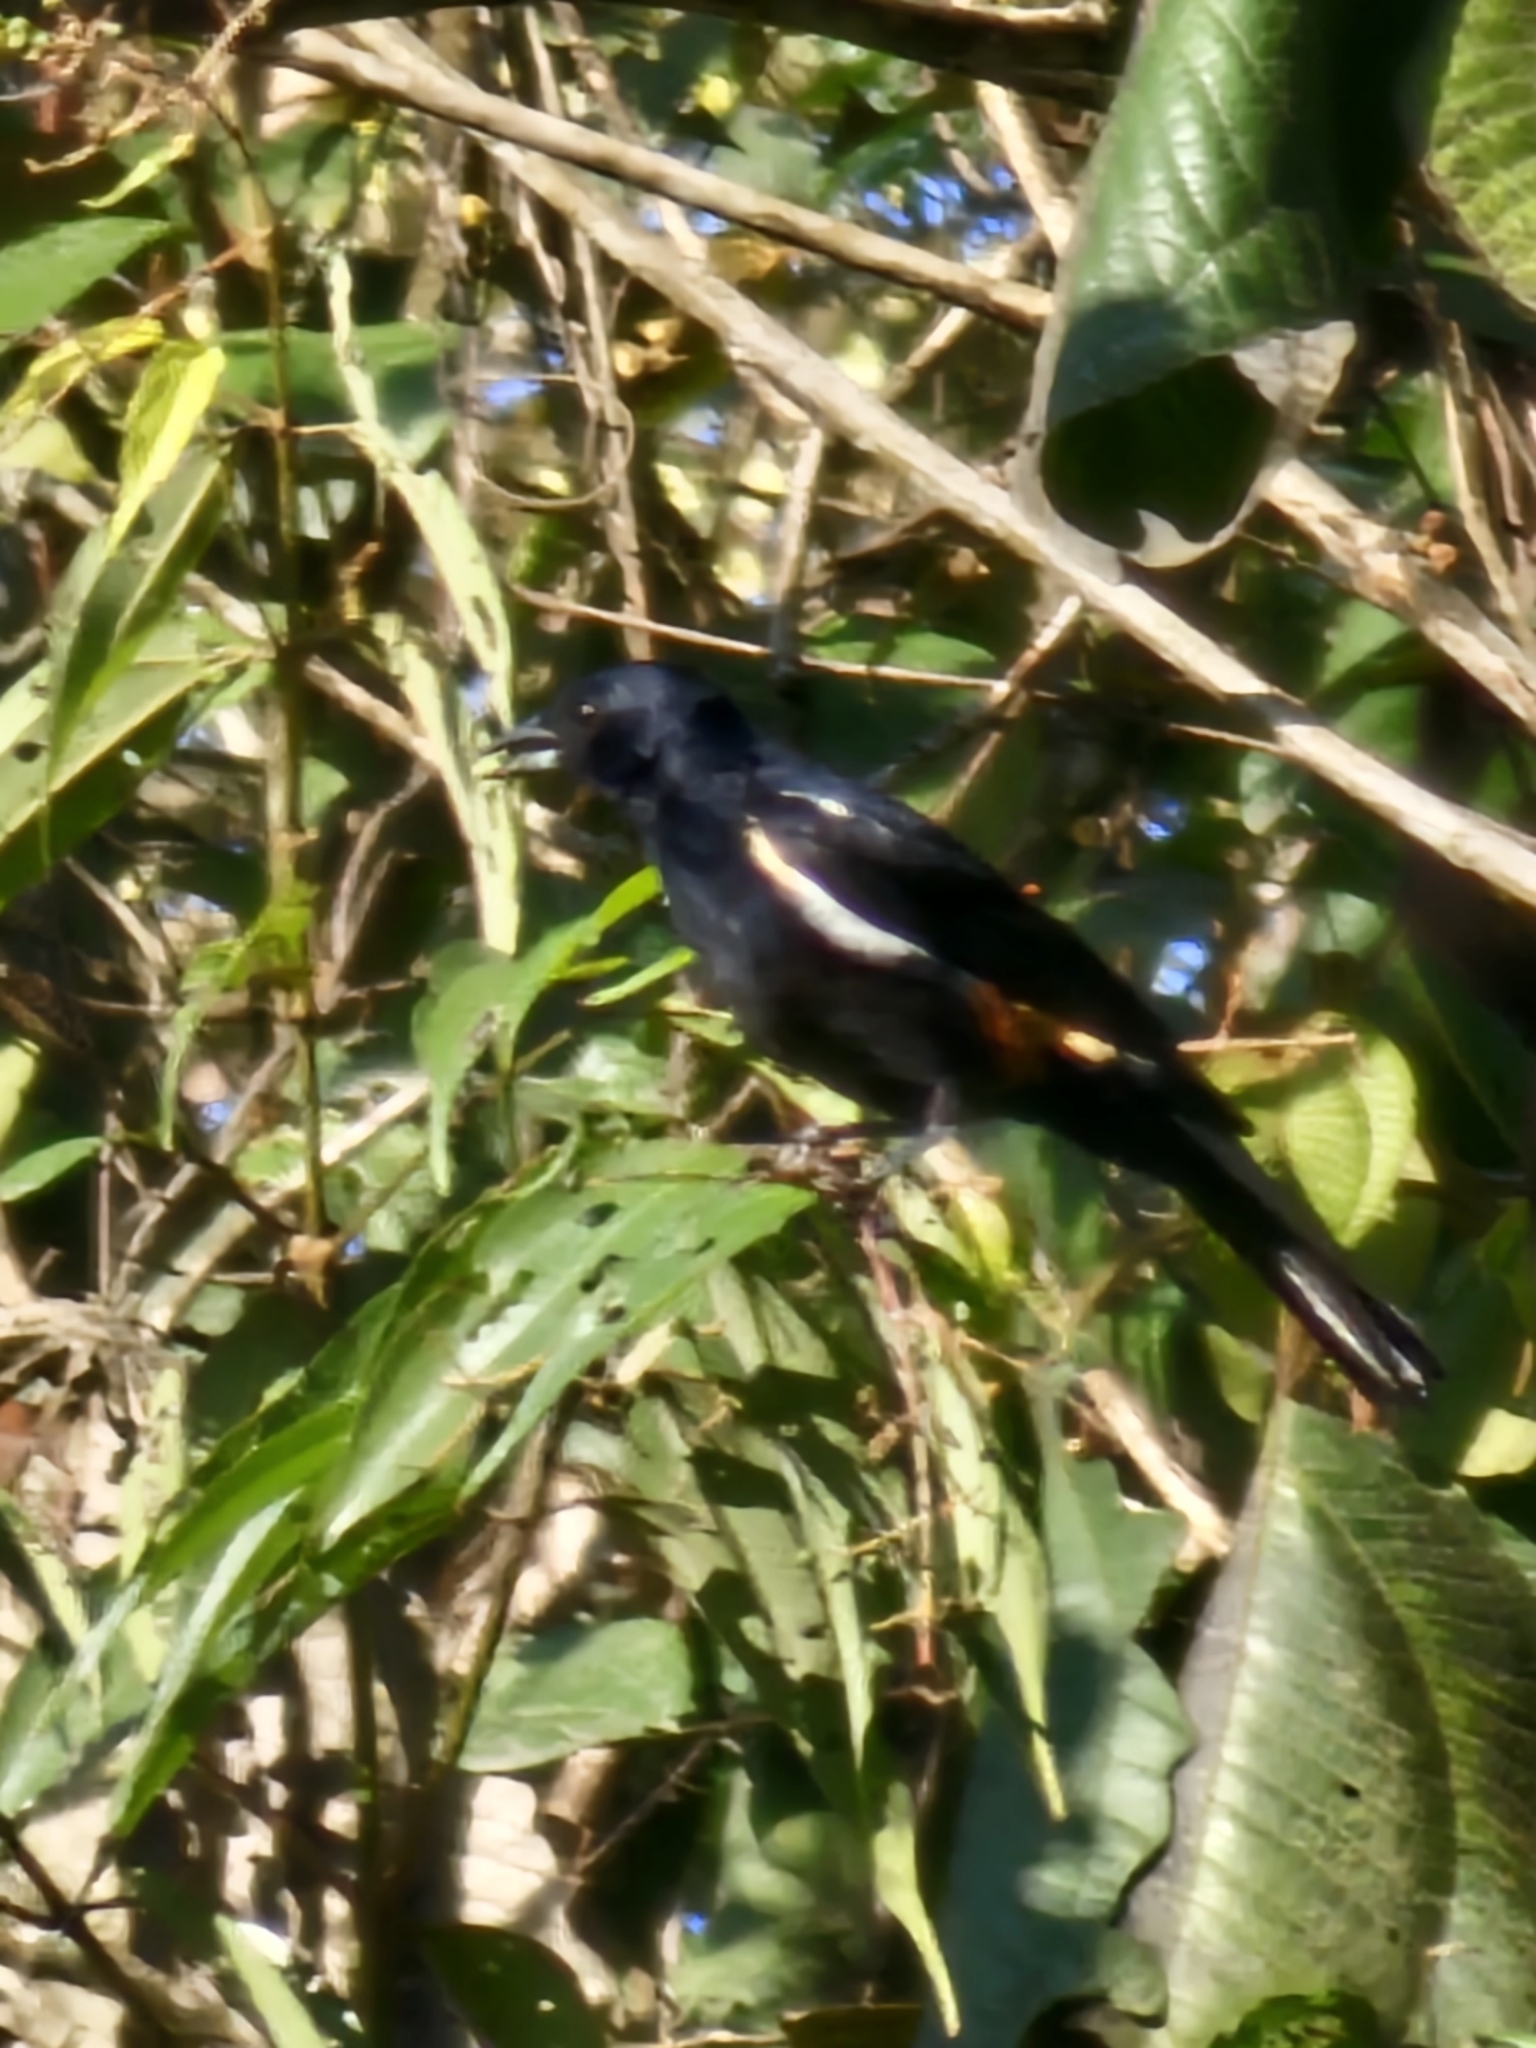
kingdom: Animalia
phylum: Chordata
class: Aves
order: Passeriformes
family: Thraupidae
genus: Tachyphonus
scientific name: Tachyphonus surinamus
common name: Fulvous-crested tanager
